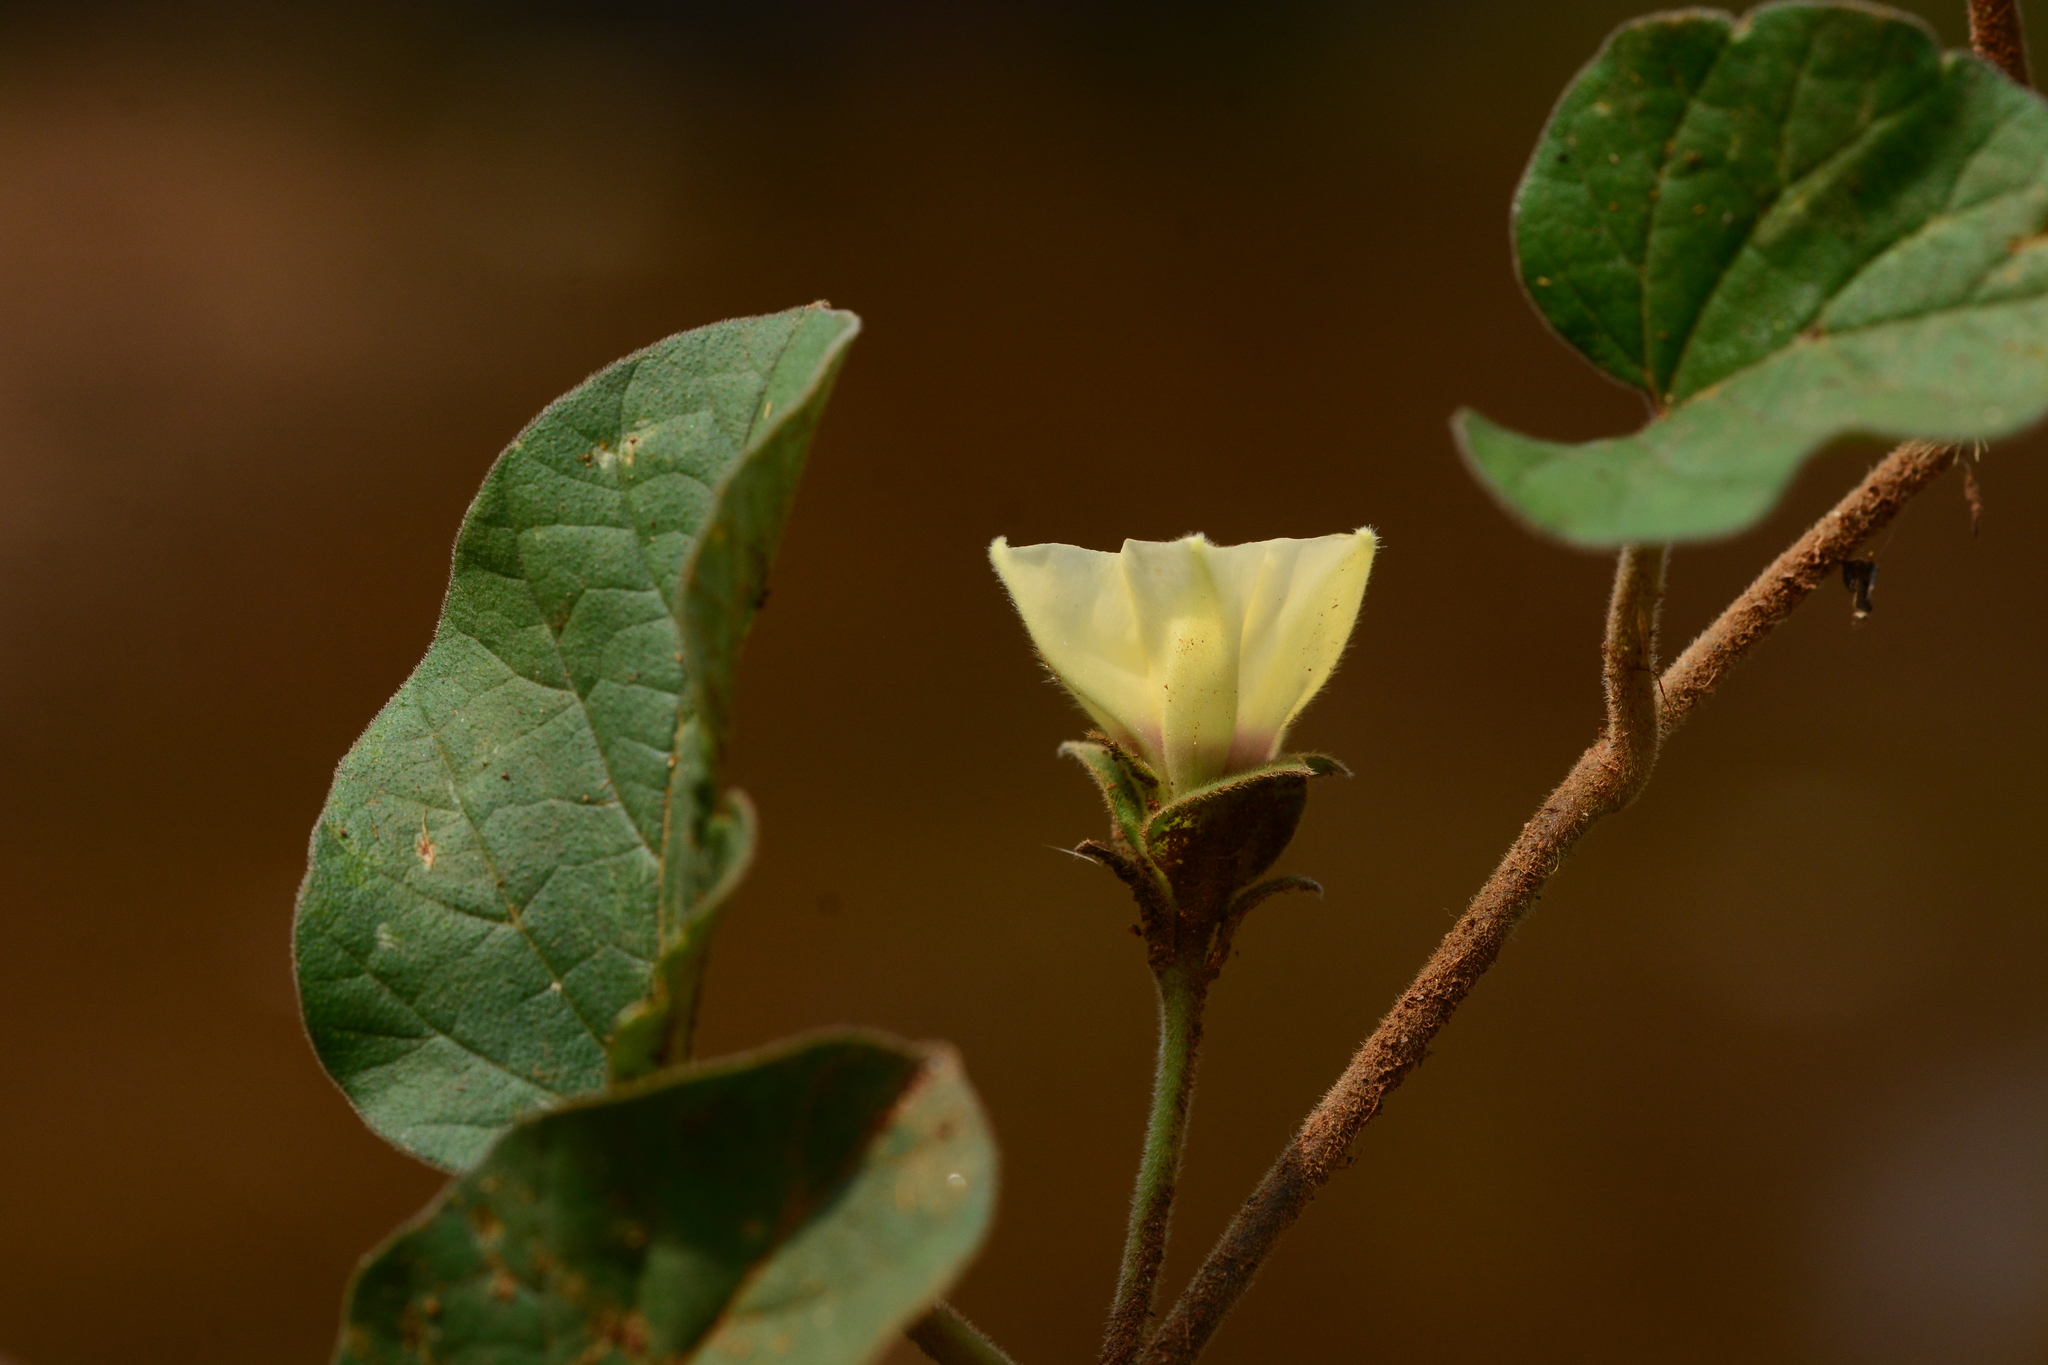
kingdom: Plantae
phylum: Tracheophyta
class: Magnoliopsida
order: Solanales
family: Convolvulaceae
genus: Hewittia
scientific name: Hewittia malabarica
